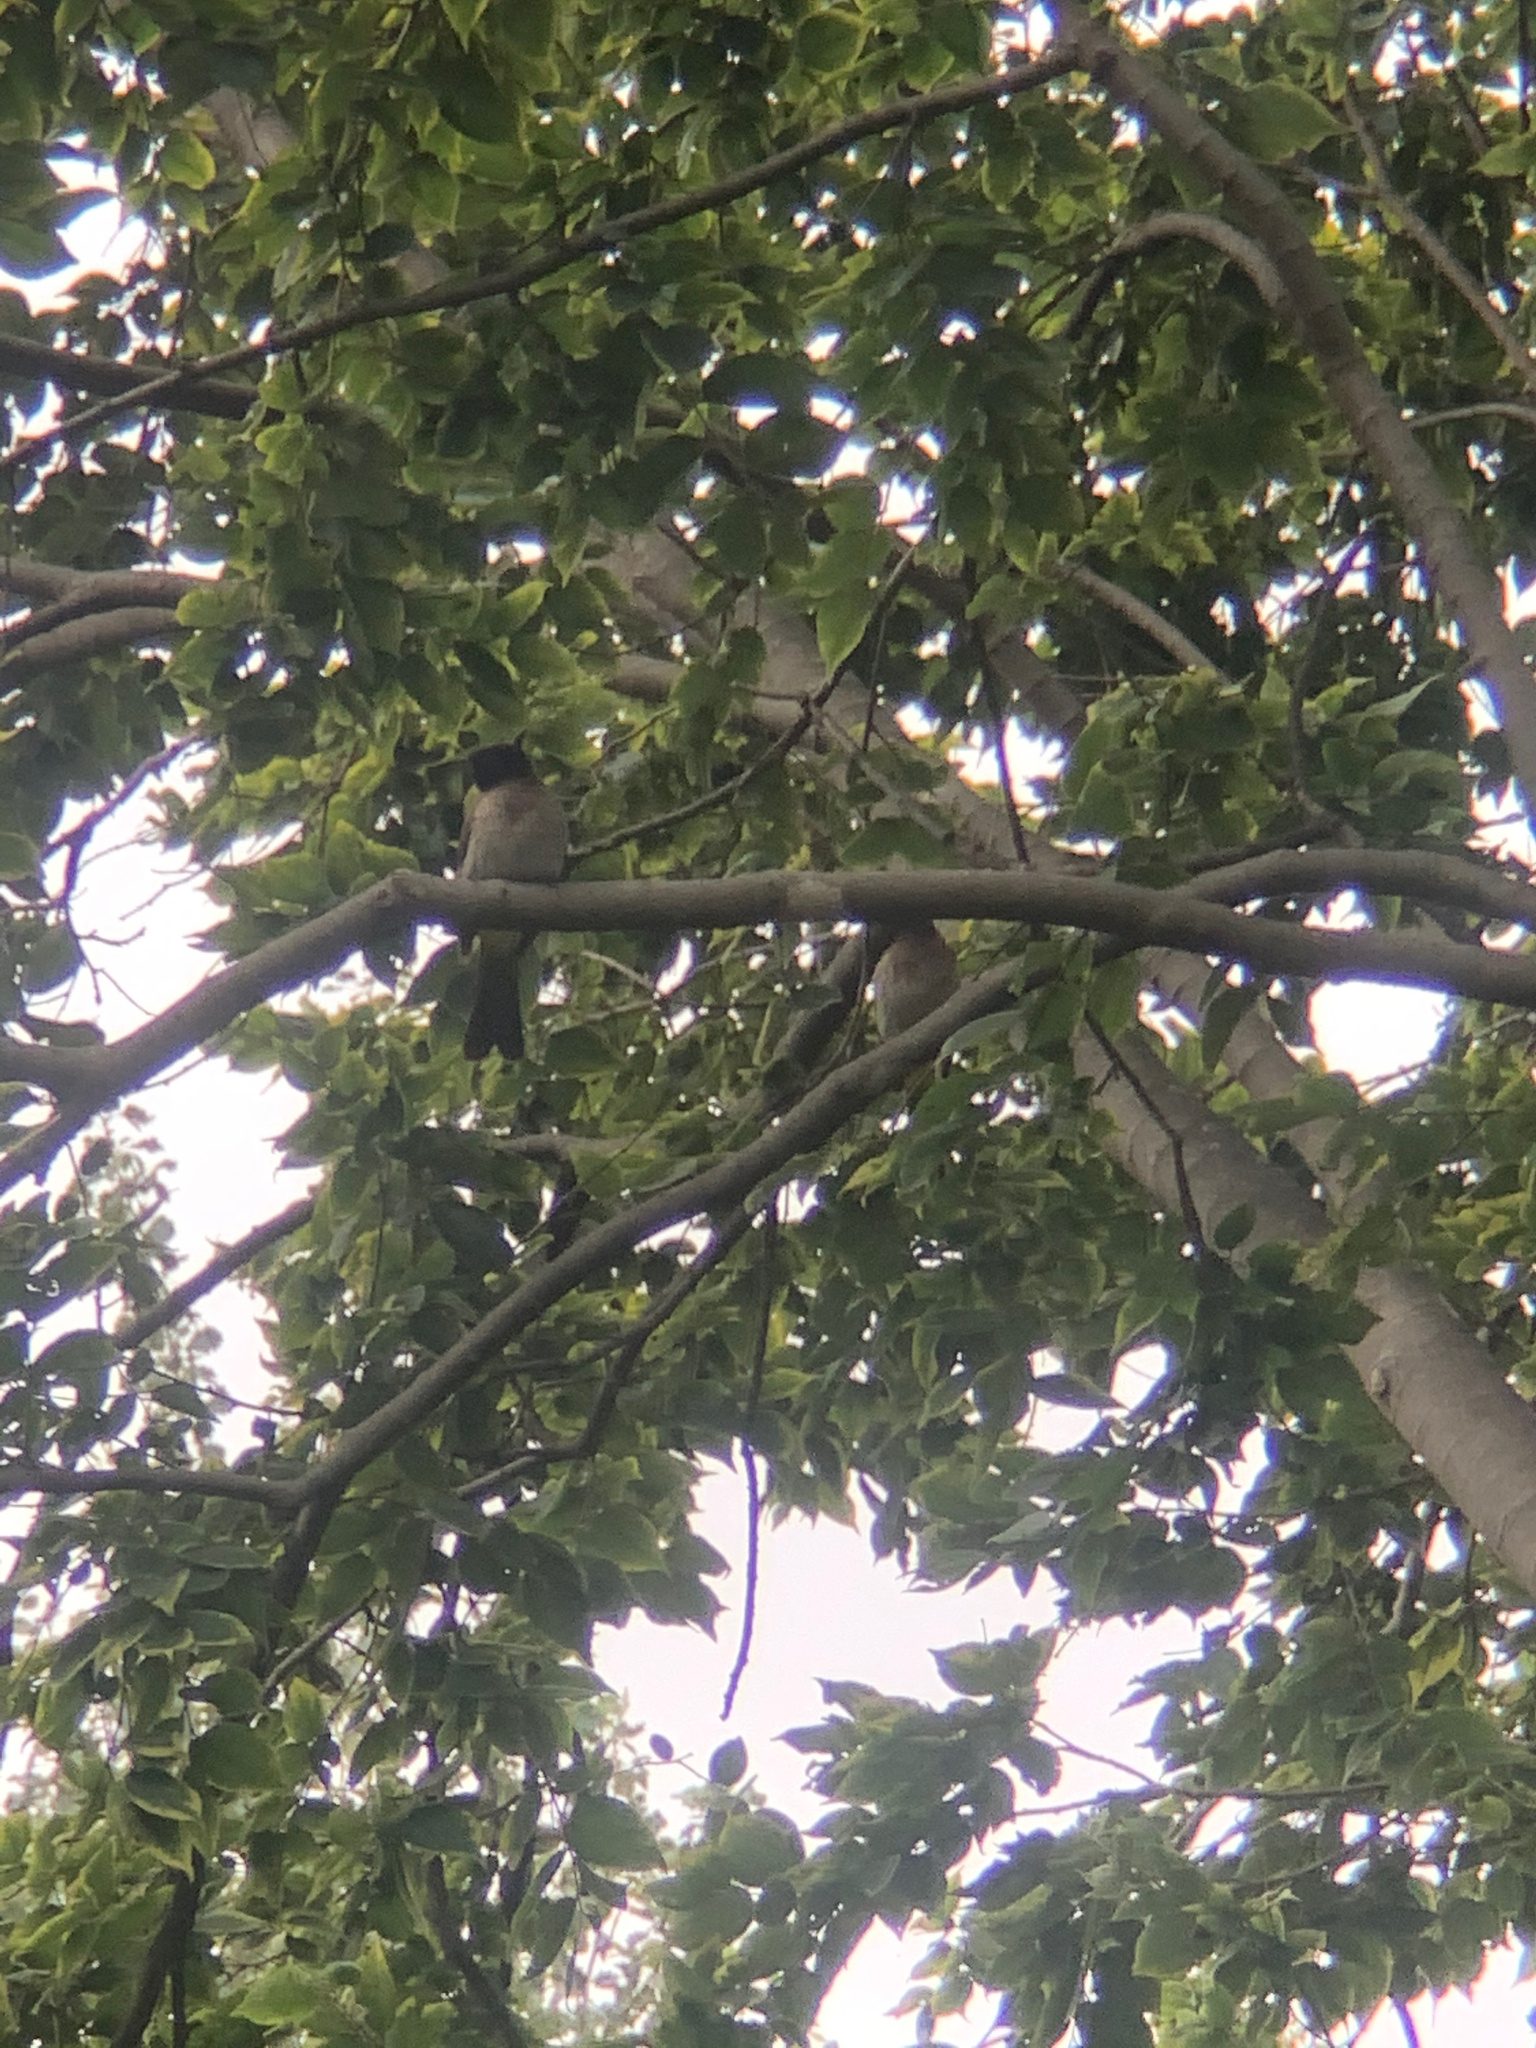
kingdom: Animalia
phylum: Chordata
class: Aves
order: Passeriformes
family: Pycnonotidae
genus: Pycnonotus
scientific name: Pycnonotus barbatus
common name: Common bulbul
